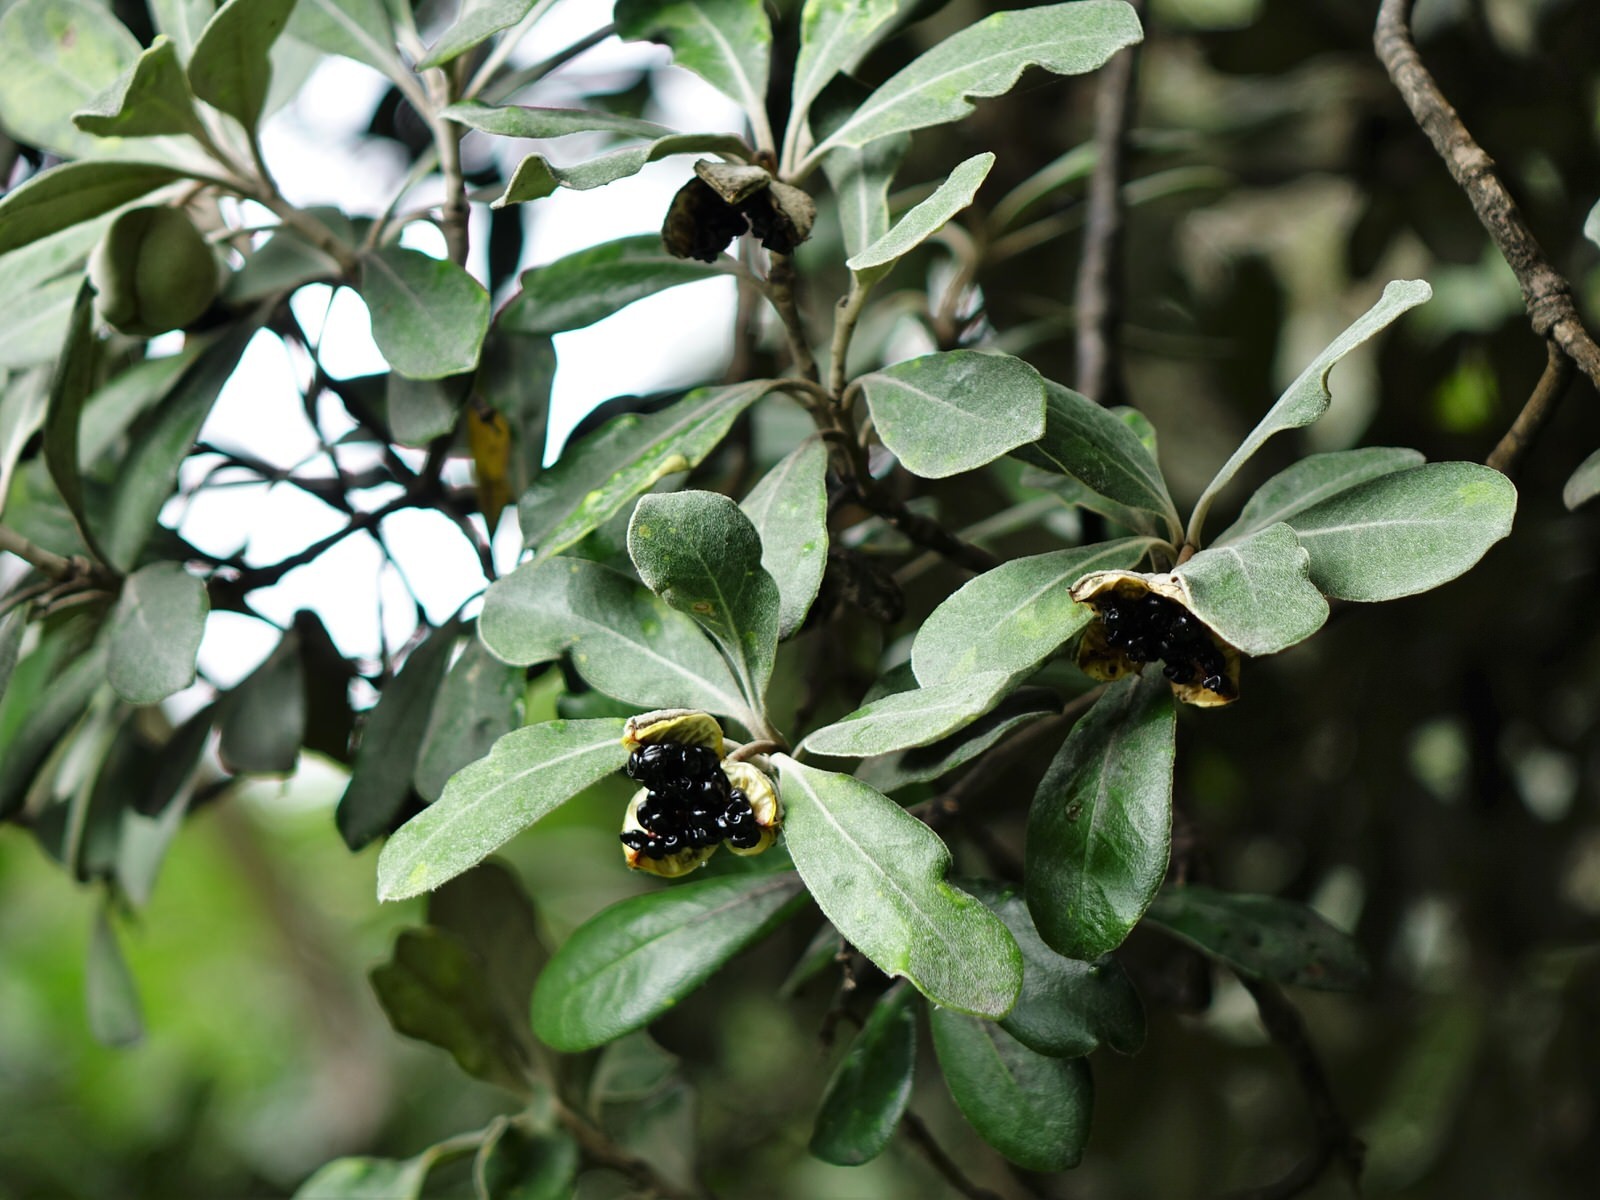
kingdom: Plantae
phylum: Tracheophyta
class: Magnoliopsida
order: Apiales
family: Pittosporaceae
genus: Pittosporum
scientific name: Pittosporum crassifolium
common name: Karo
